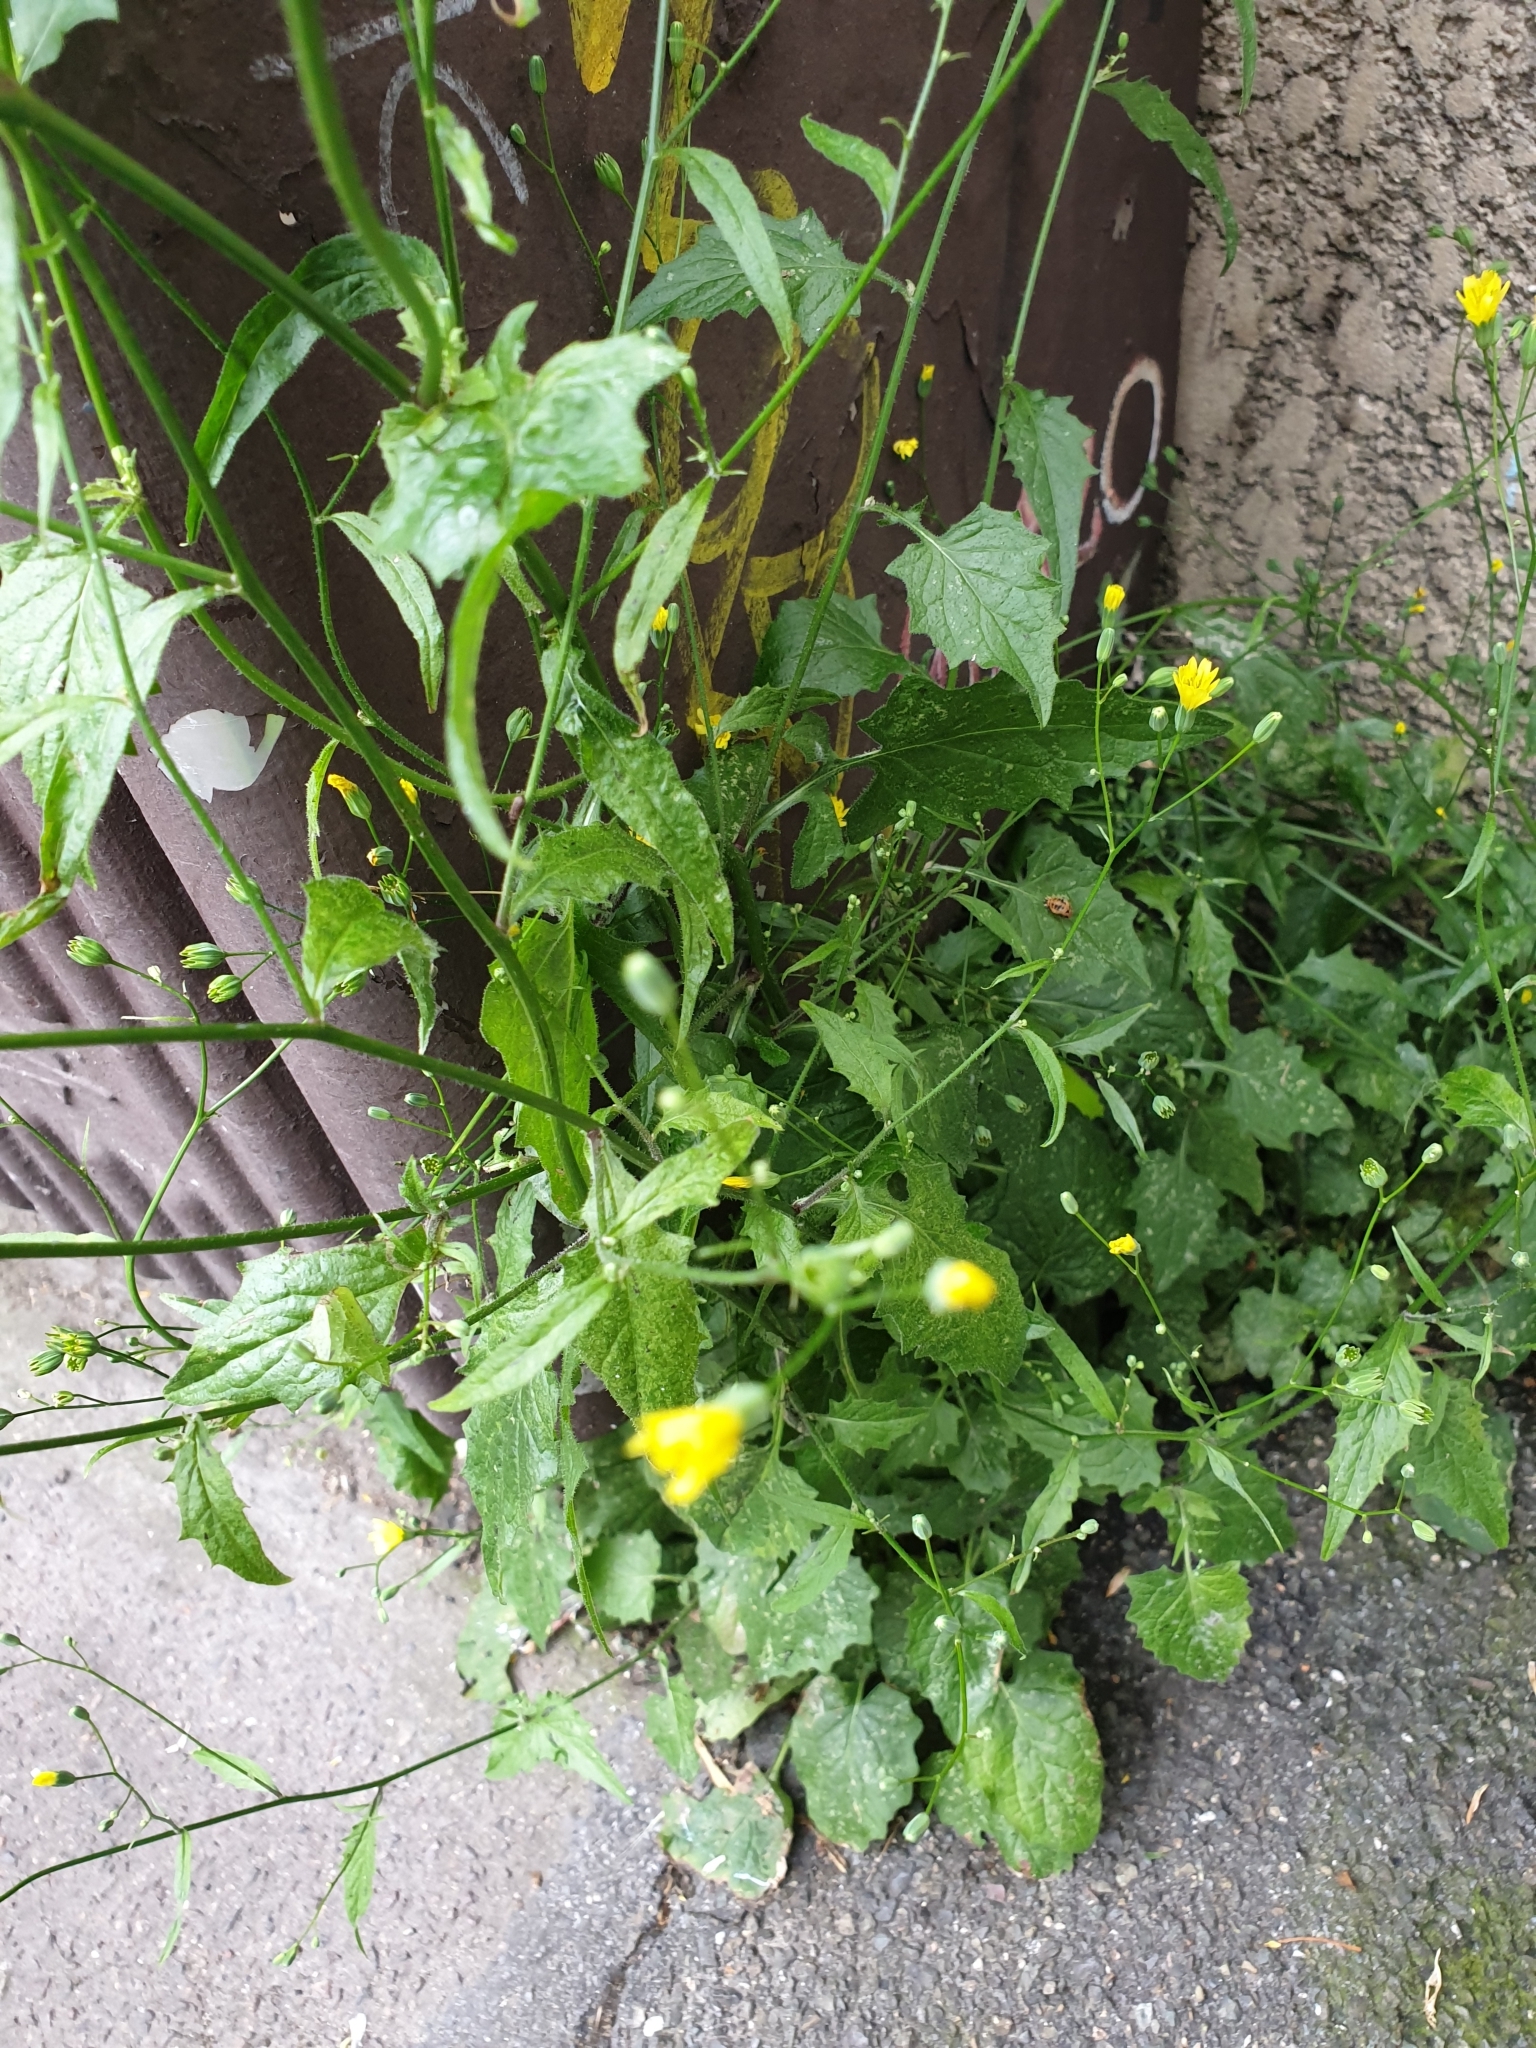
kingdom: Plantae
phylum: Tracheophyta
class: Magnoliopsida
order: Asterales
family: Asteraceae
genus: Lapsana
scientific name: Lapsana communis
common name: Nipplewort
